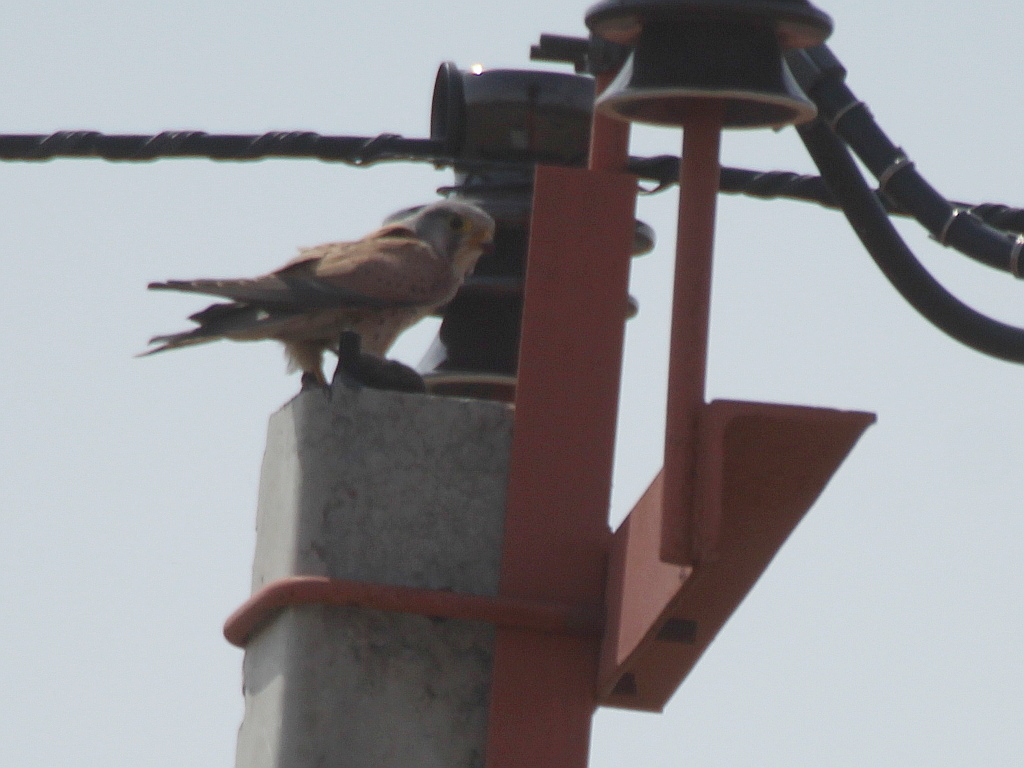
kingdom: Animalia
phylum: Chordata
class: Aves
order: Falconiformes
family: Falconidae
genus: Falco
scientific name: Falco tinnunculus
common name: Common kestrel
